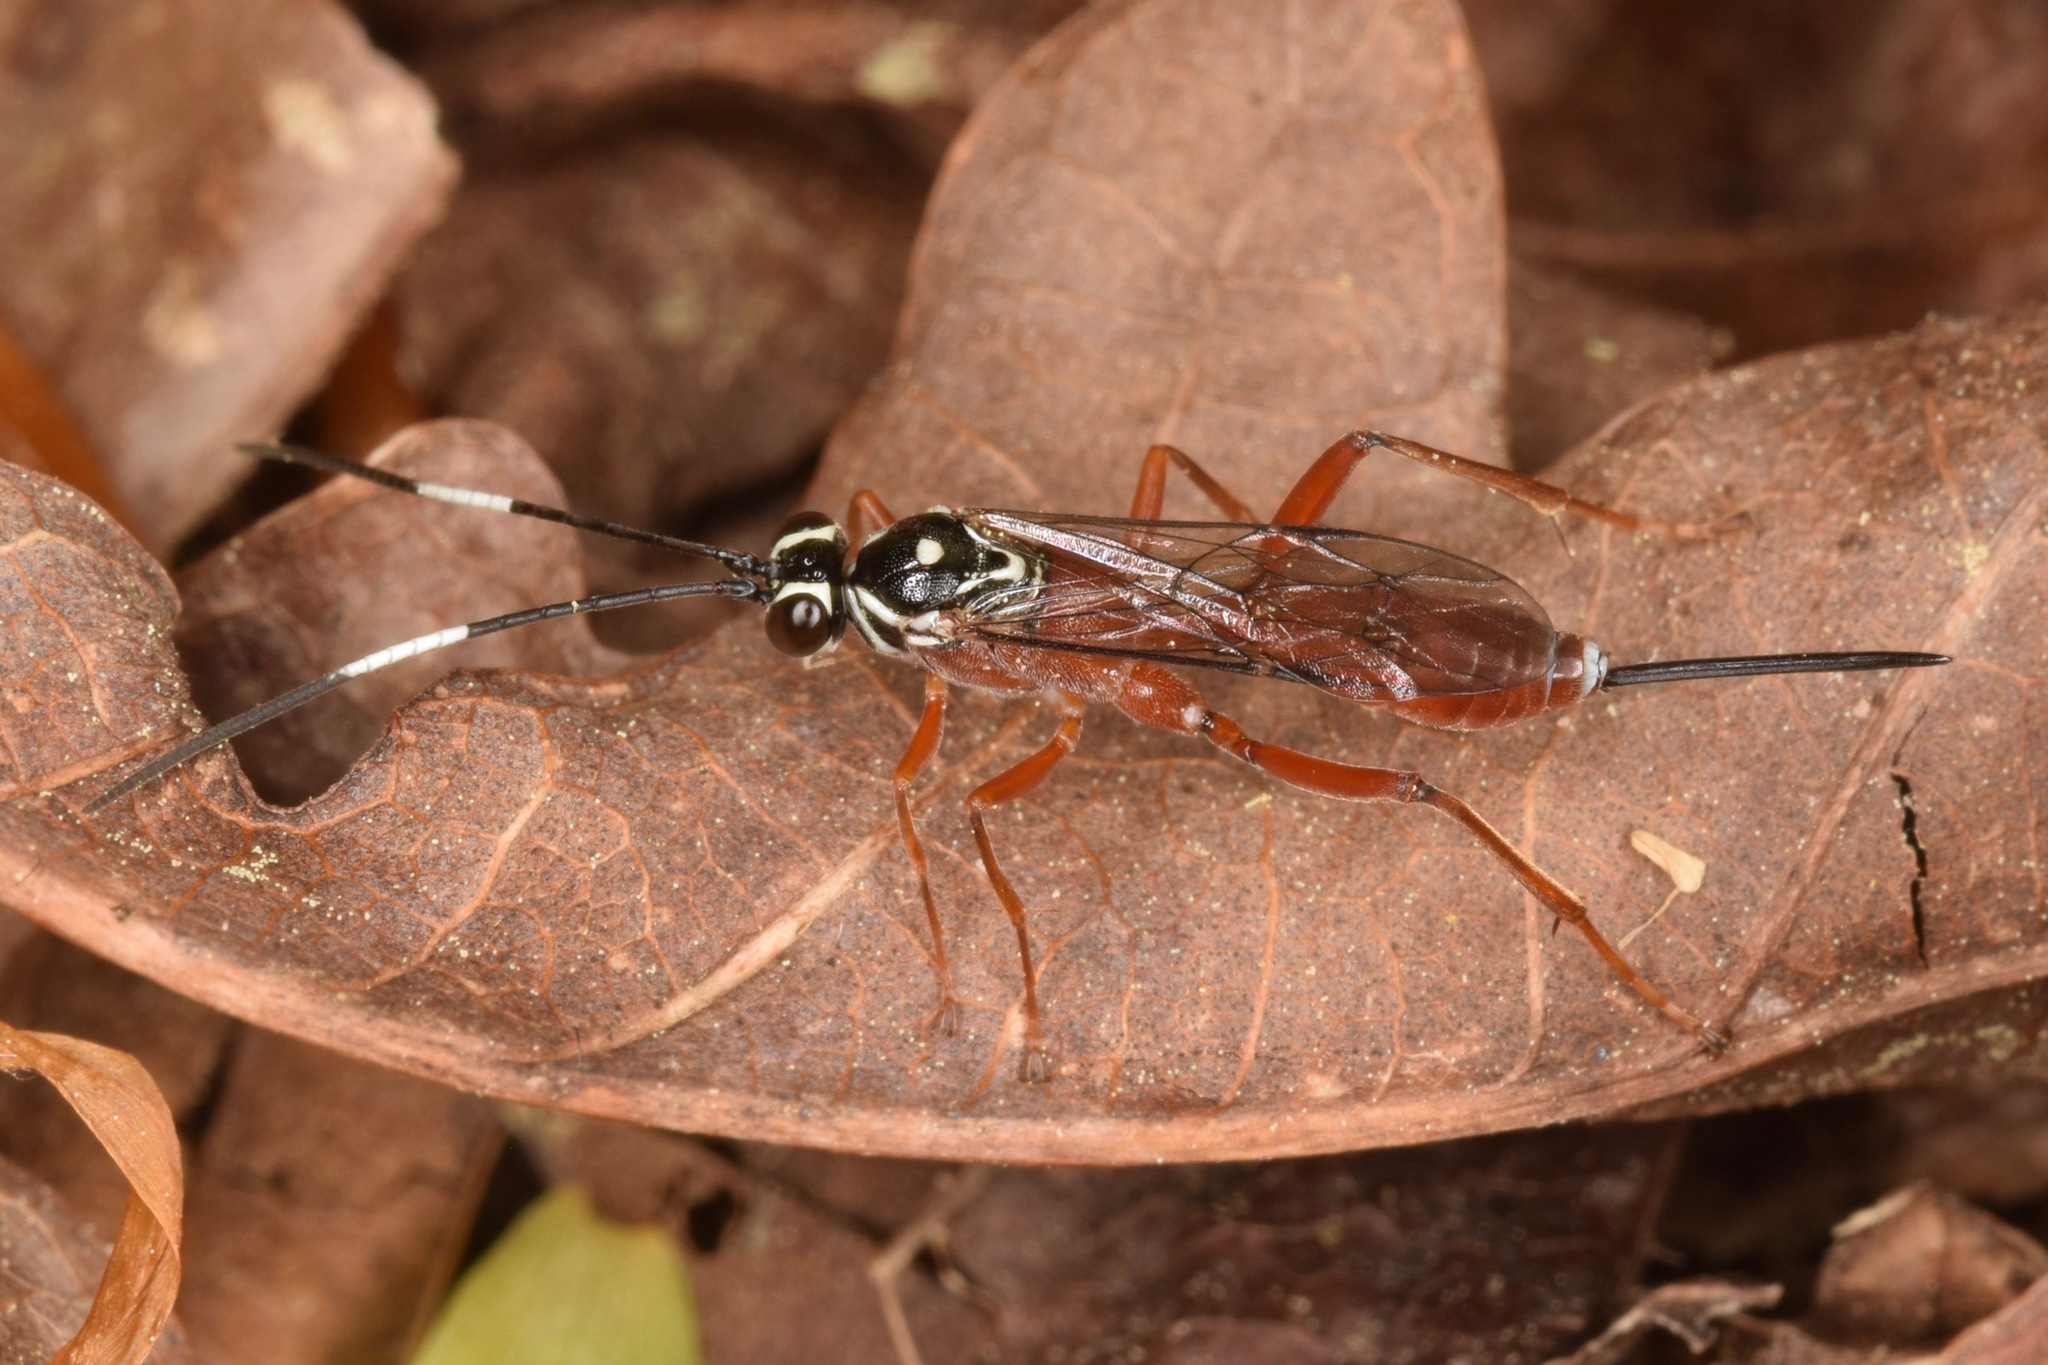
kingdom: Animalia
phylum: Arthropoda
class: Insecta
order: Hymenoptera
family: Ichneumonidae
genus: Mesostenus
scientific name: Mesostenus thoracicus
